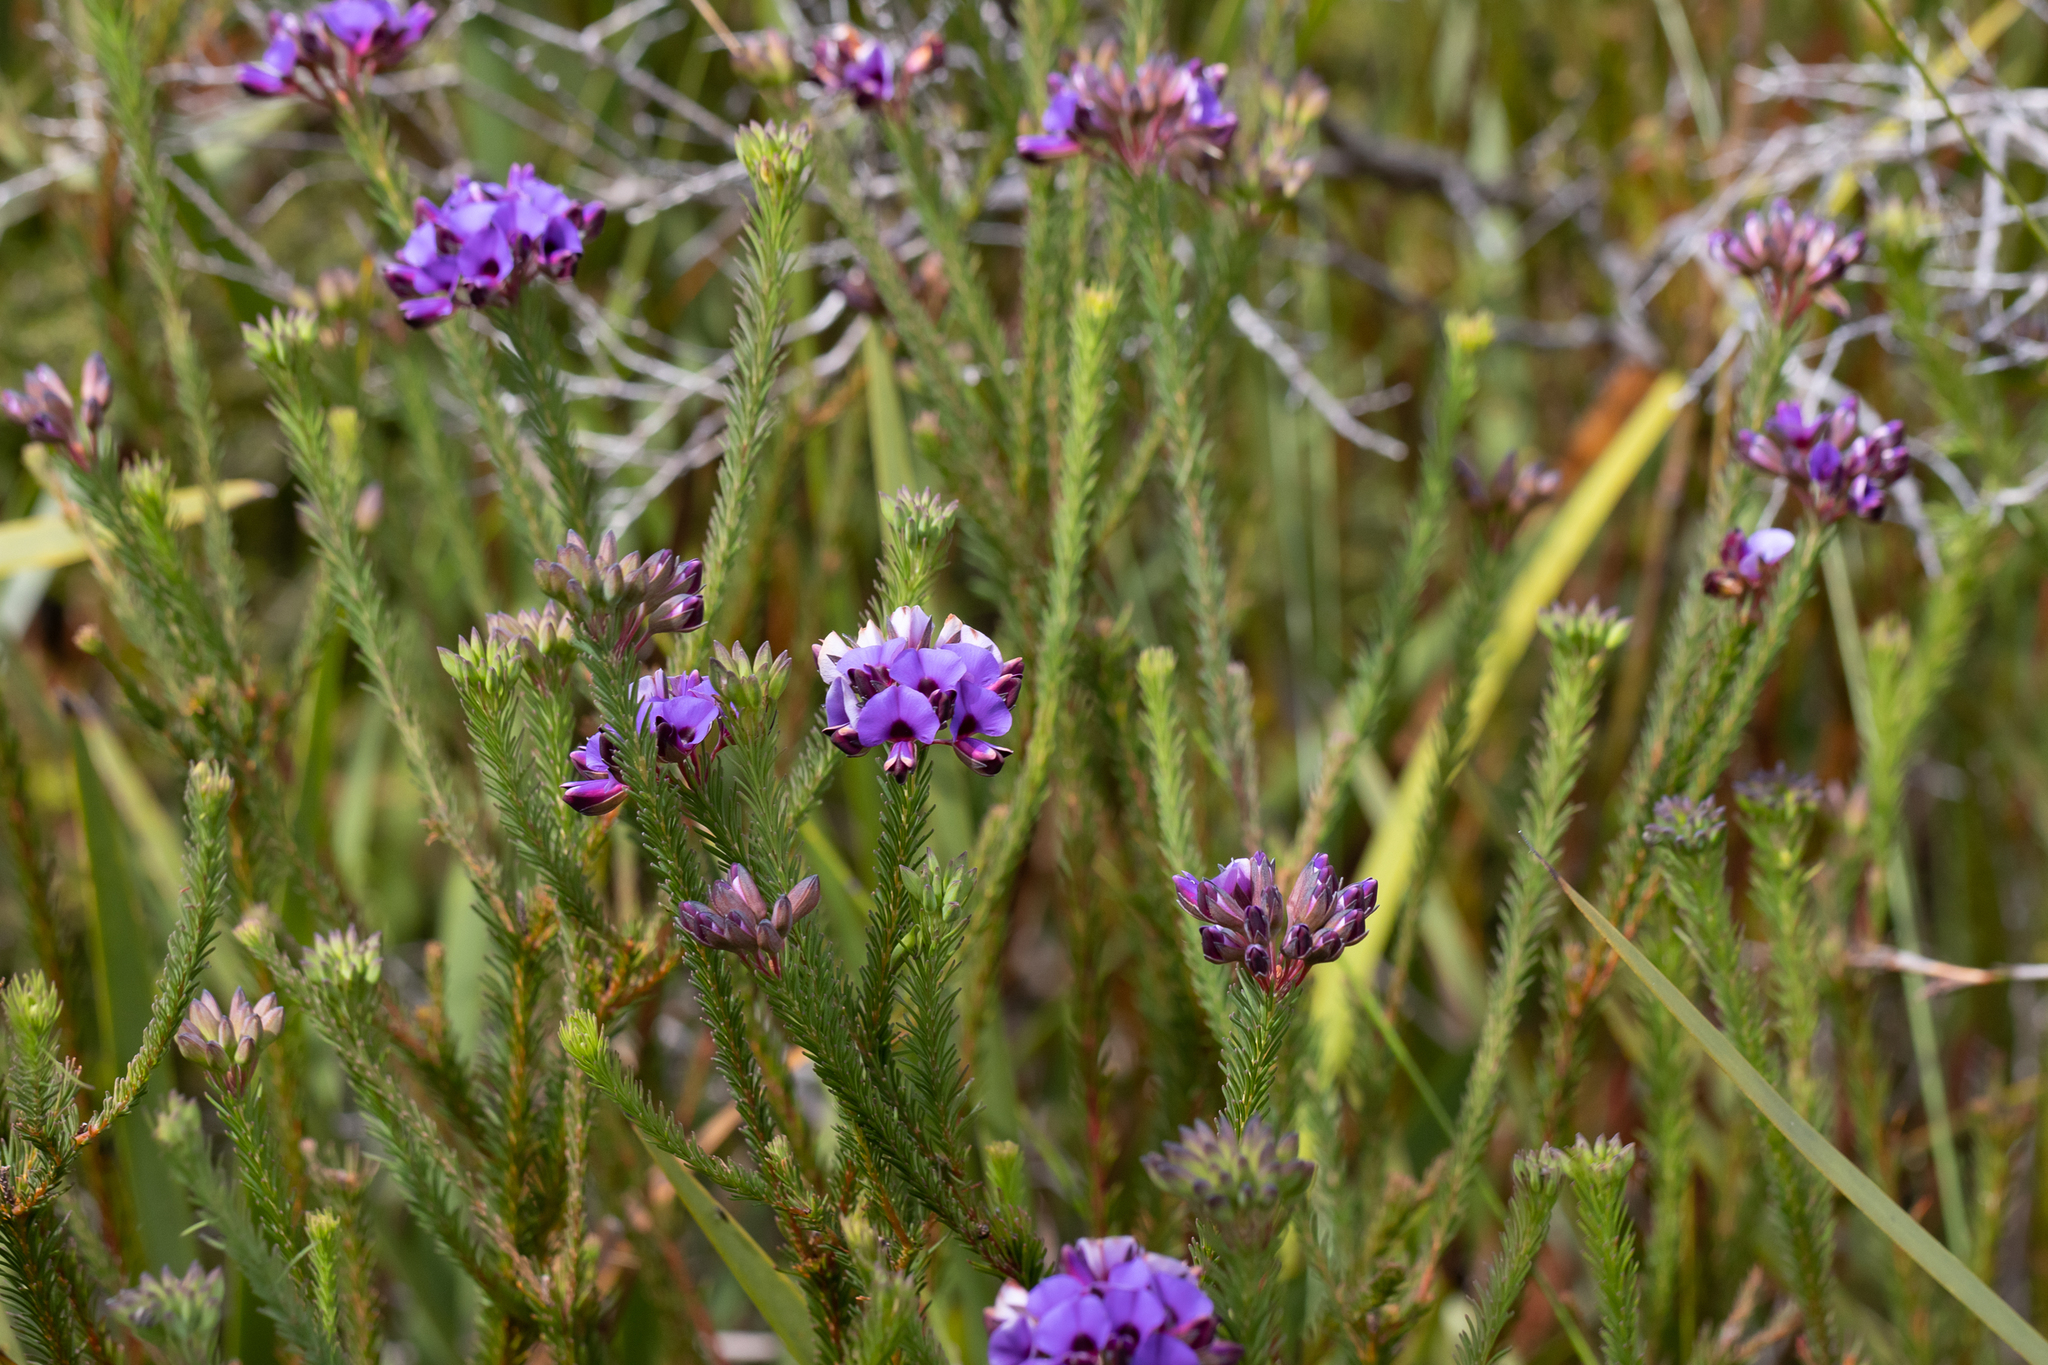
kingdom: Plantae
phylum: Tracheophyta
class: Magnoliopsida
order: Fabales
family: Fabaceae
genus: Gompholobium
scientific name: Gompholobium confertum
